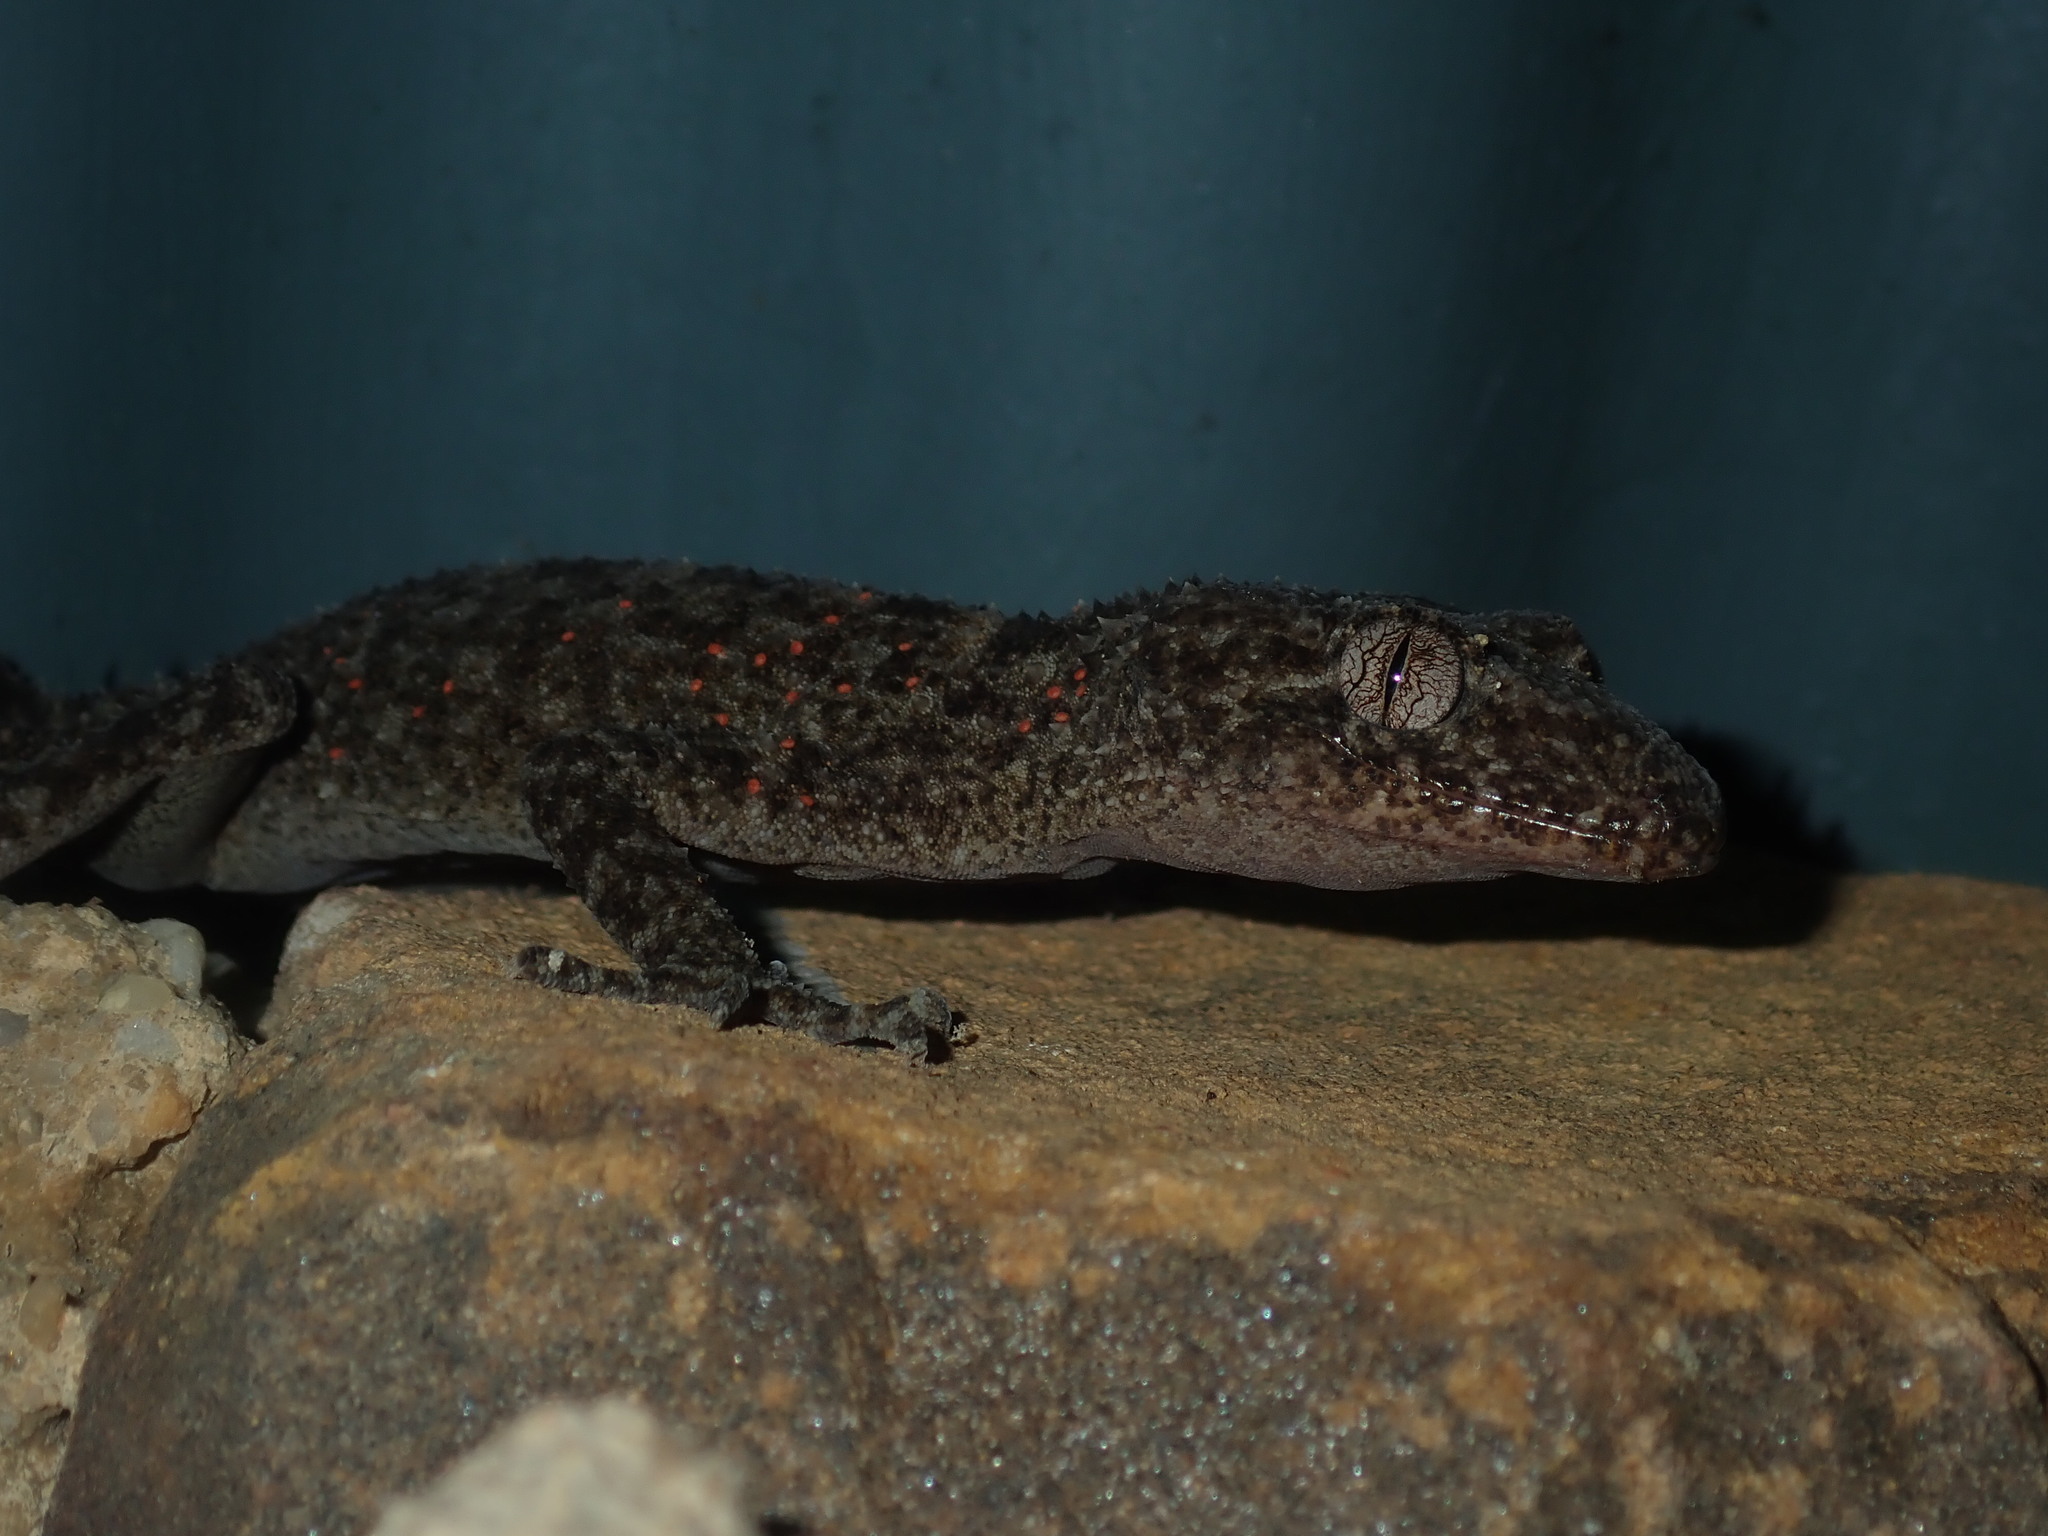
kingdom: Animalia
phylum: Chordata
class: Squamata
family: Carphodactylidae
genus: Phyllurus
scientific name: Phyllurus platurus
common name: Broad-tailed gecko
